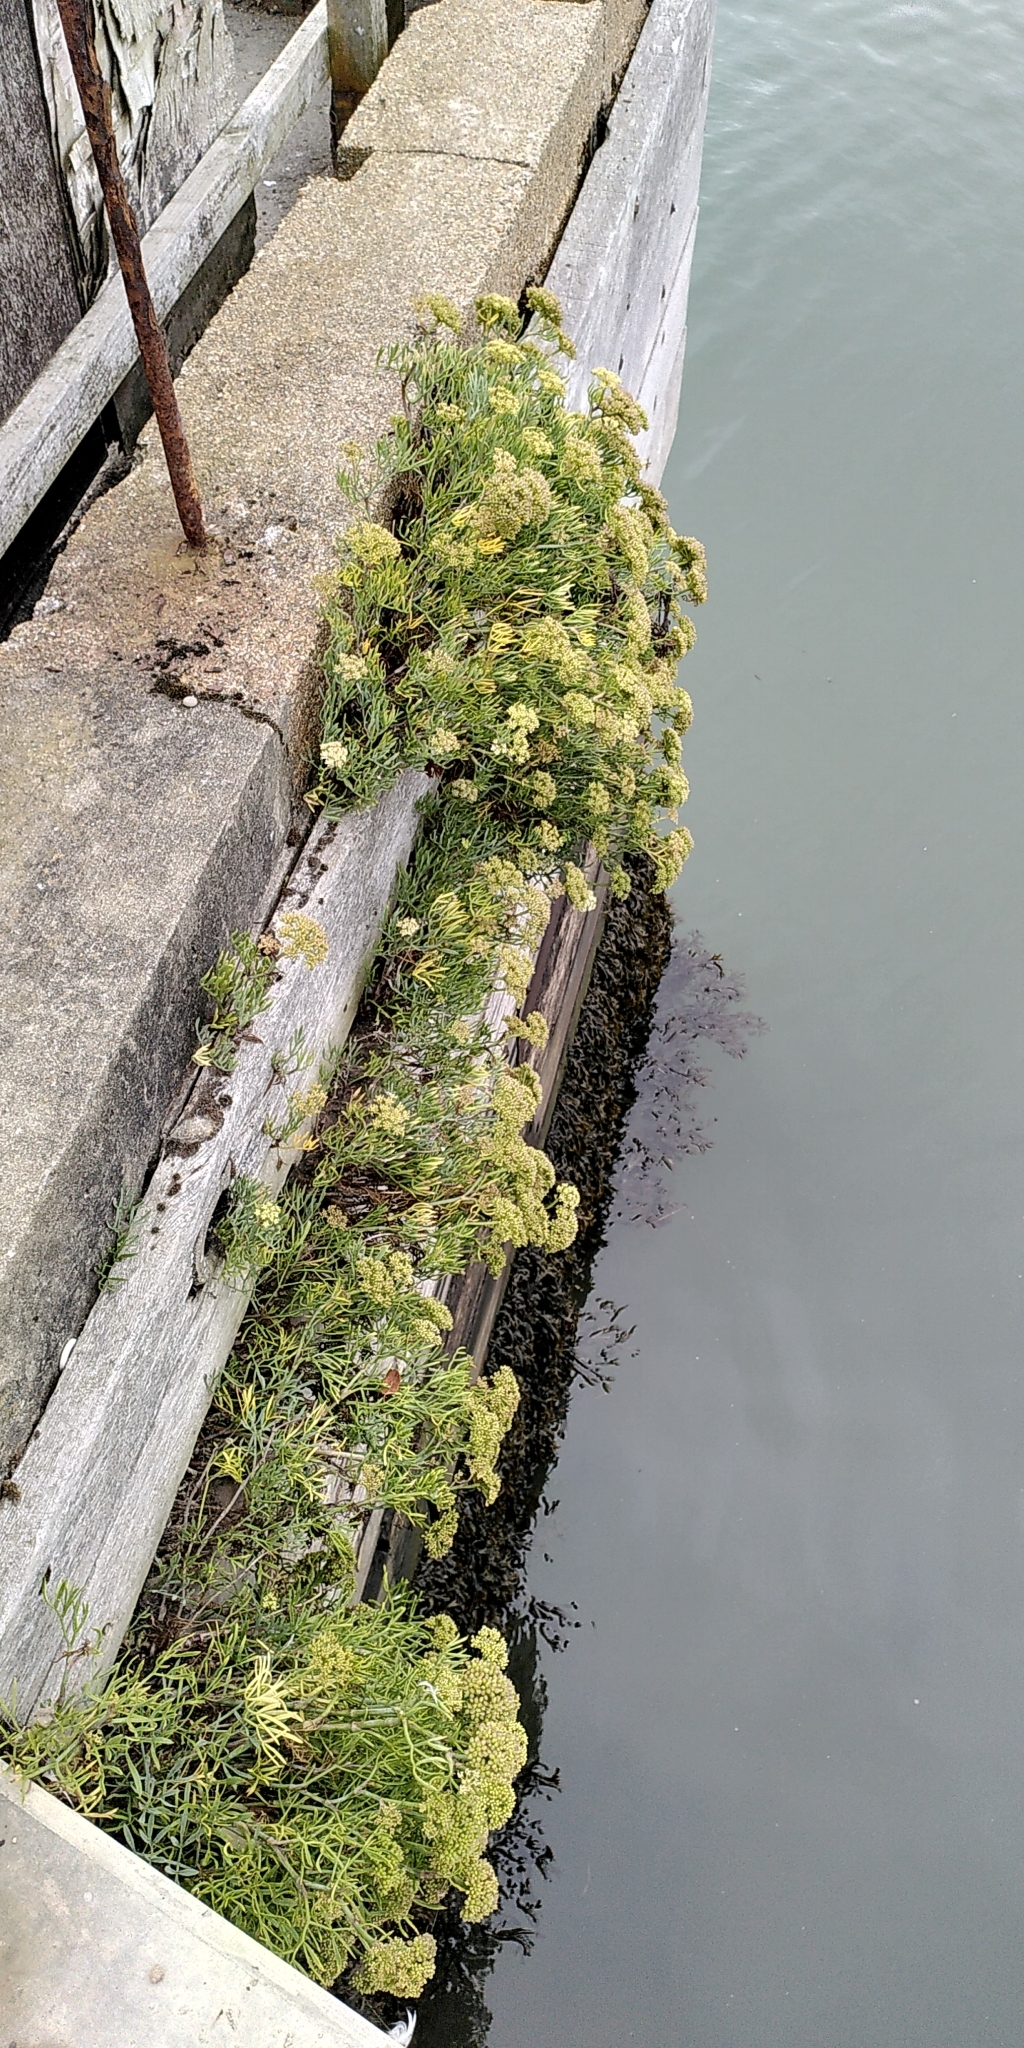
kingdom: Plantae
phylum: Tracheophyta
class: Magnoliopsida
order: Apiales
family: Apiaceae
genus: Crithmum
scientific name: Crithmum maritimum
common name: Rock samphire
